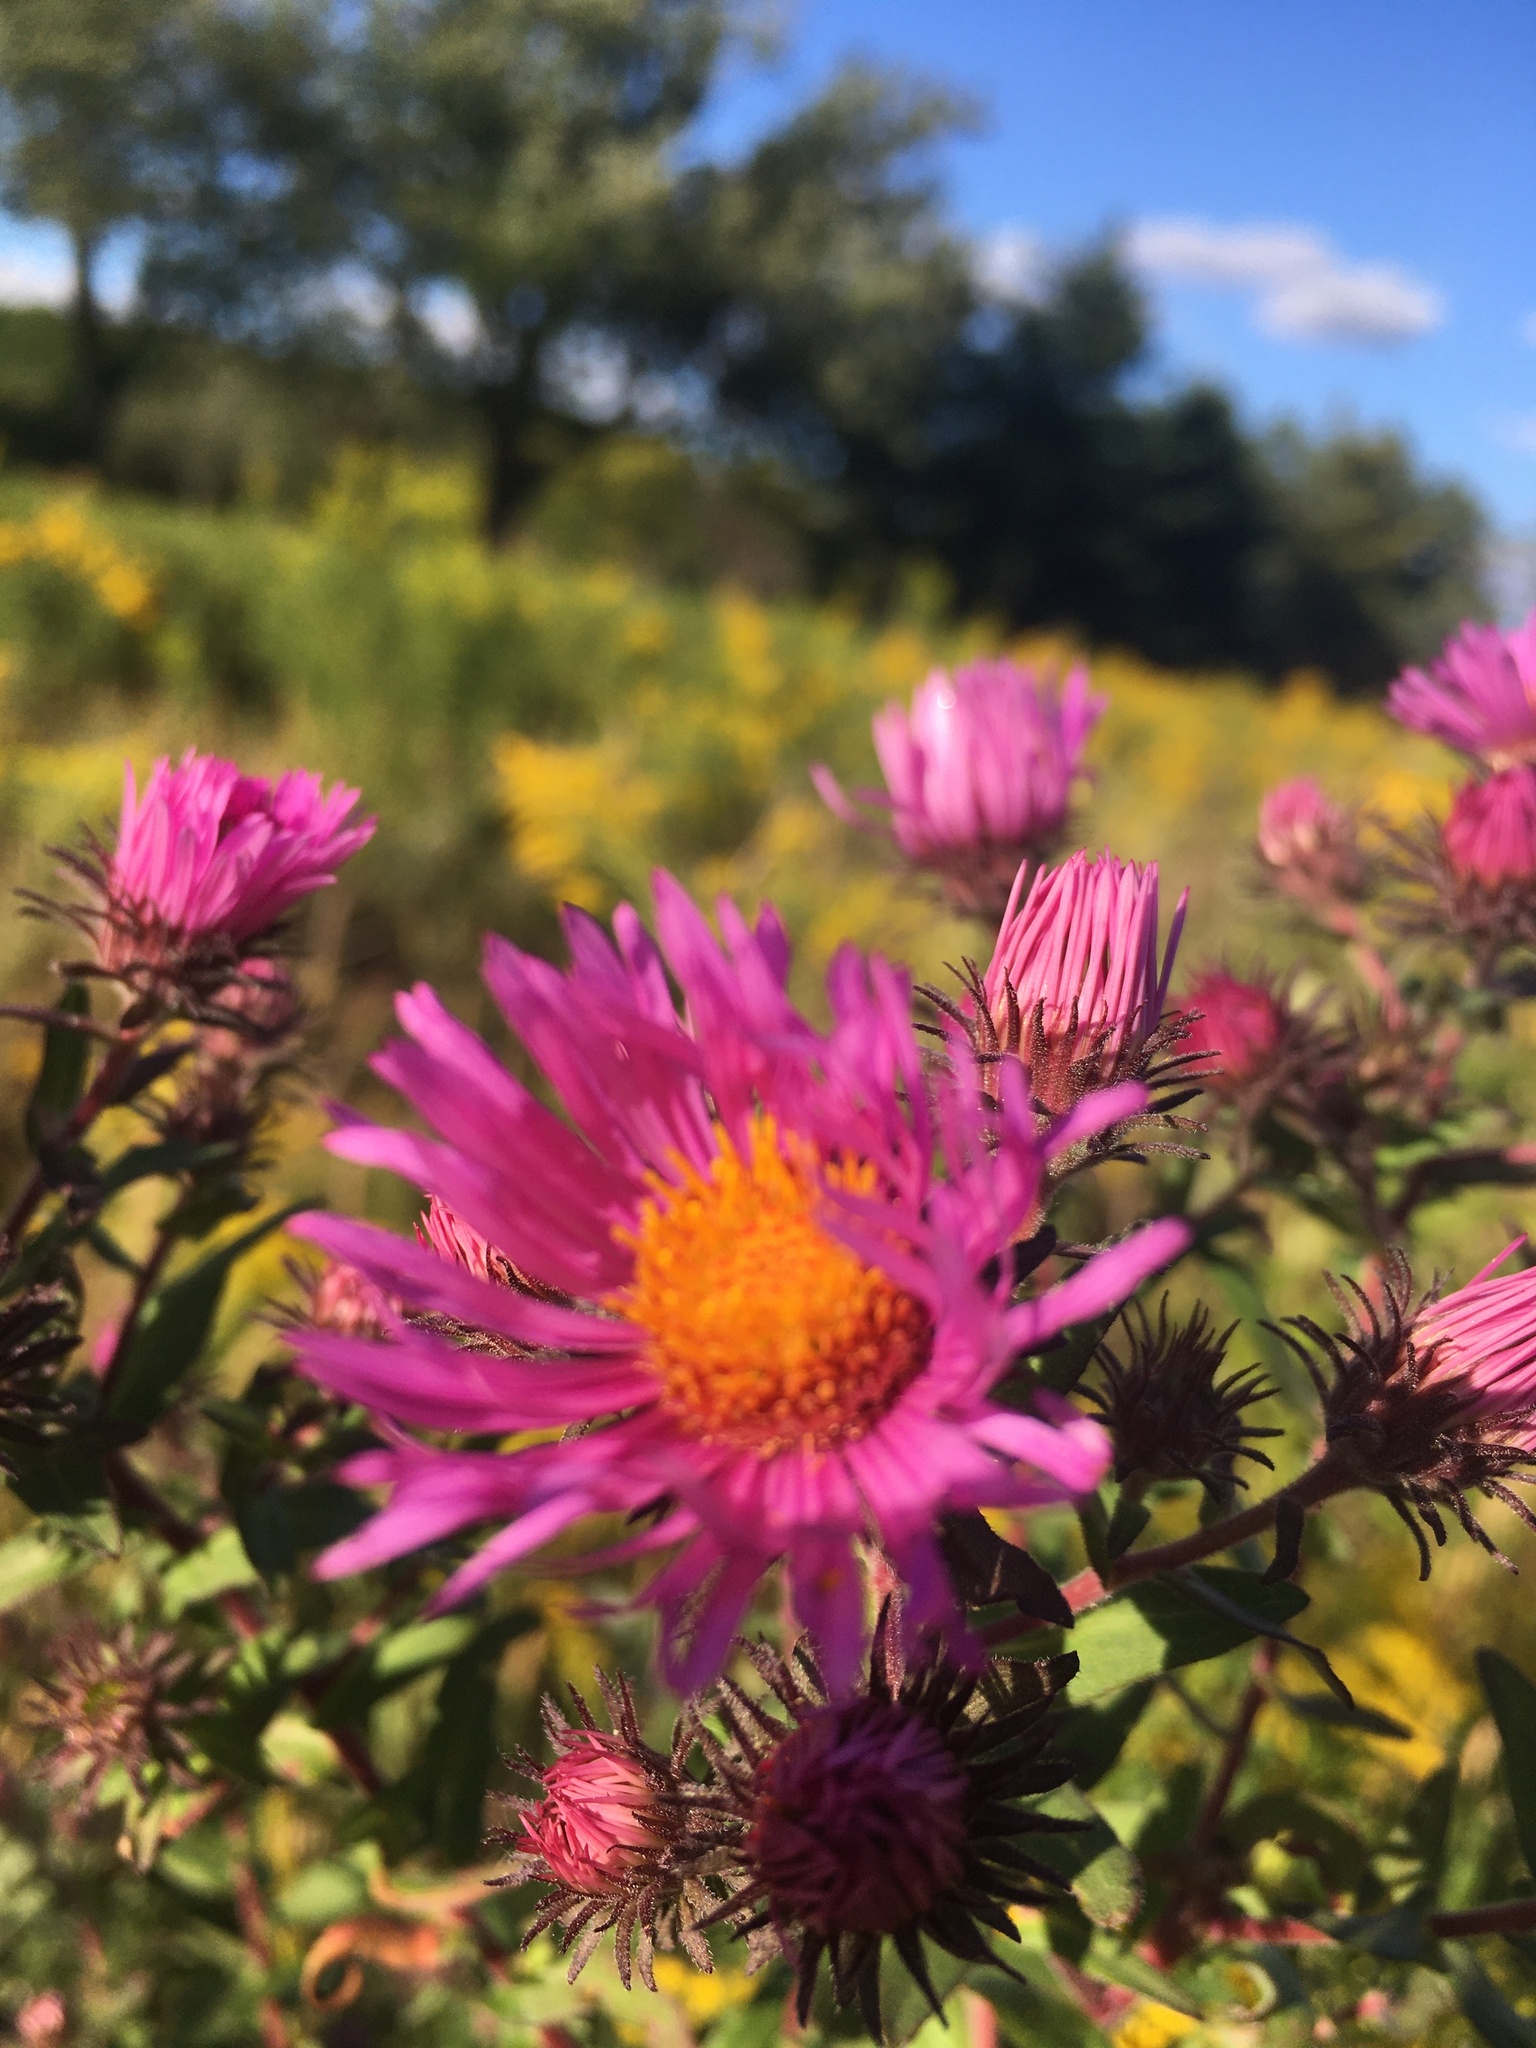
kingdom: Plantae
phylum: Tracheophyta
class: Magnoliopsida
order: Asterales
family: Asteraceae
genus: Symphyotrichum
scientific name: Symphyotrichum novae-angliae
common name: Michaelmas daisy
